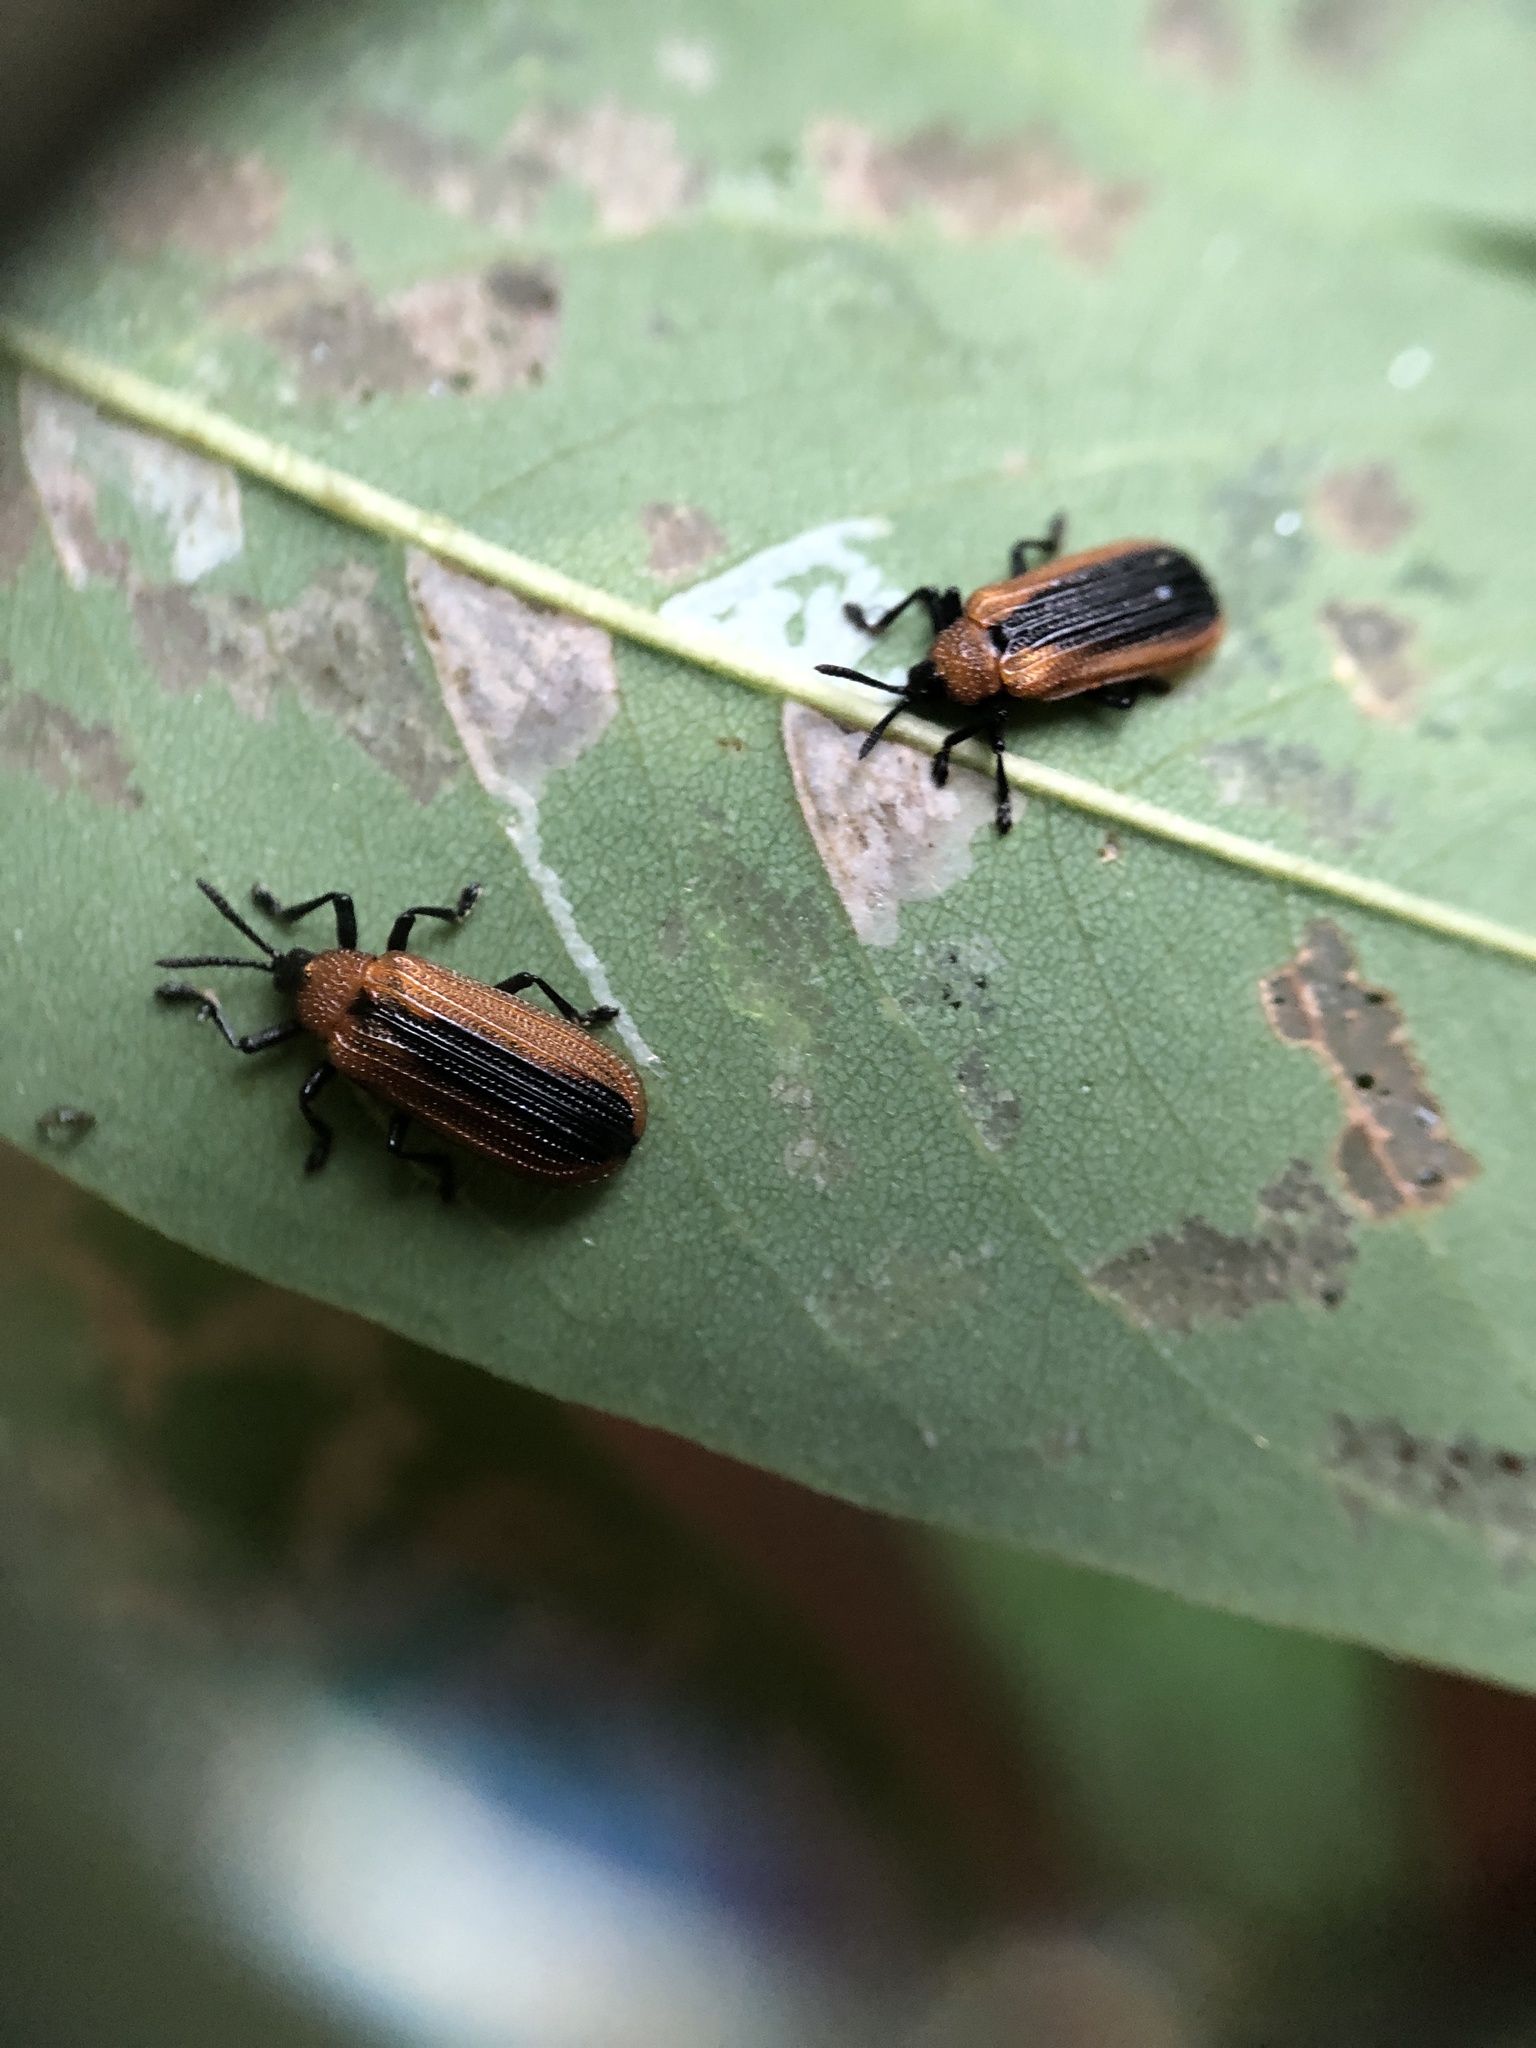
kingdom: Animalia
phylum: Arthropoda
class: Insecta
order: Coleoptera
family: Chrysomelidae
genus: Odontota
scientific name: Odontota dorsalis
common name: Locust leaf-miner beetle
